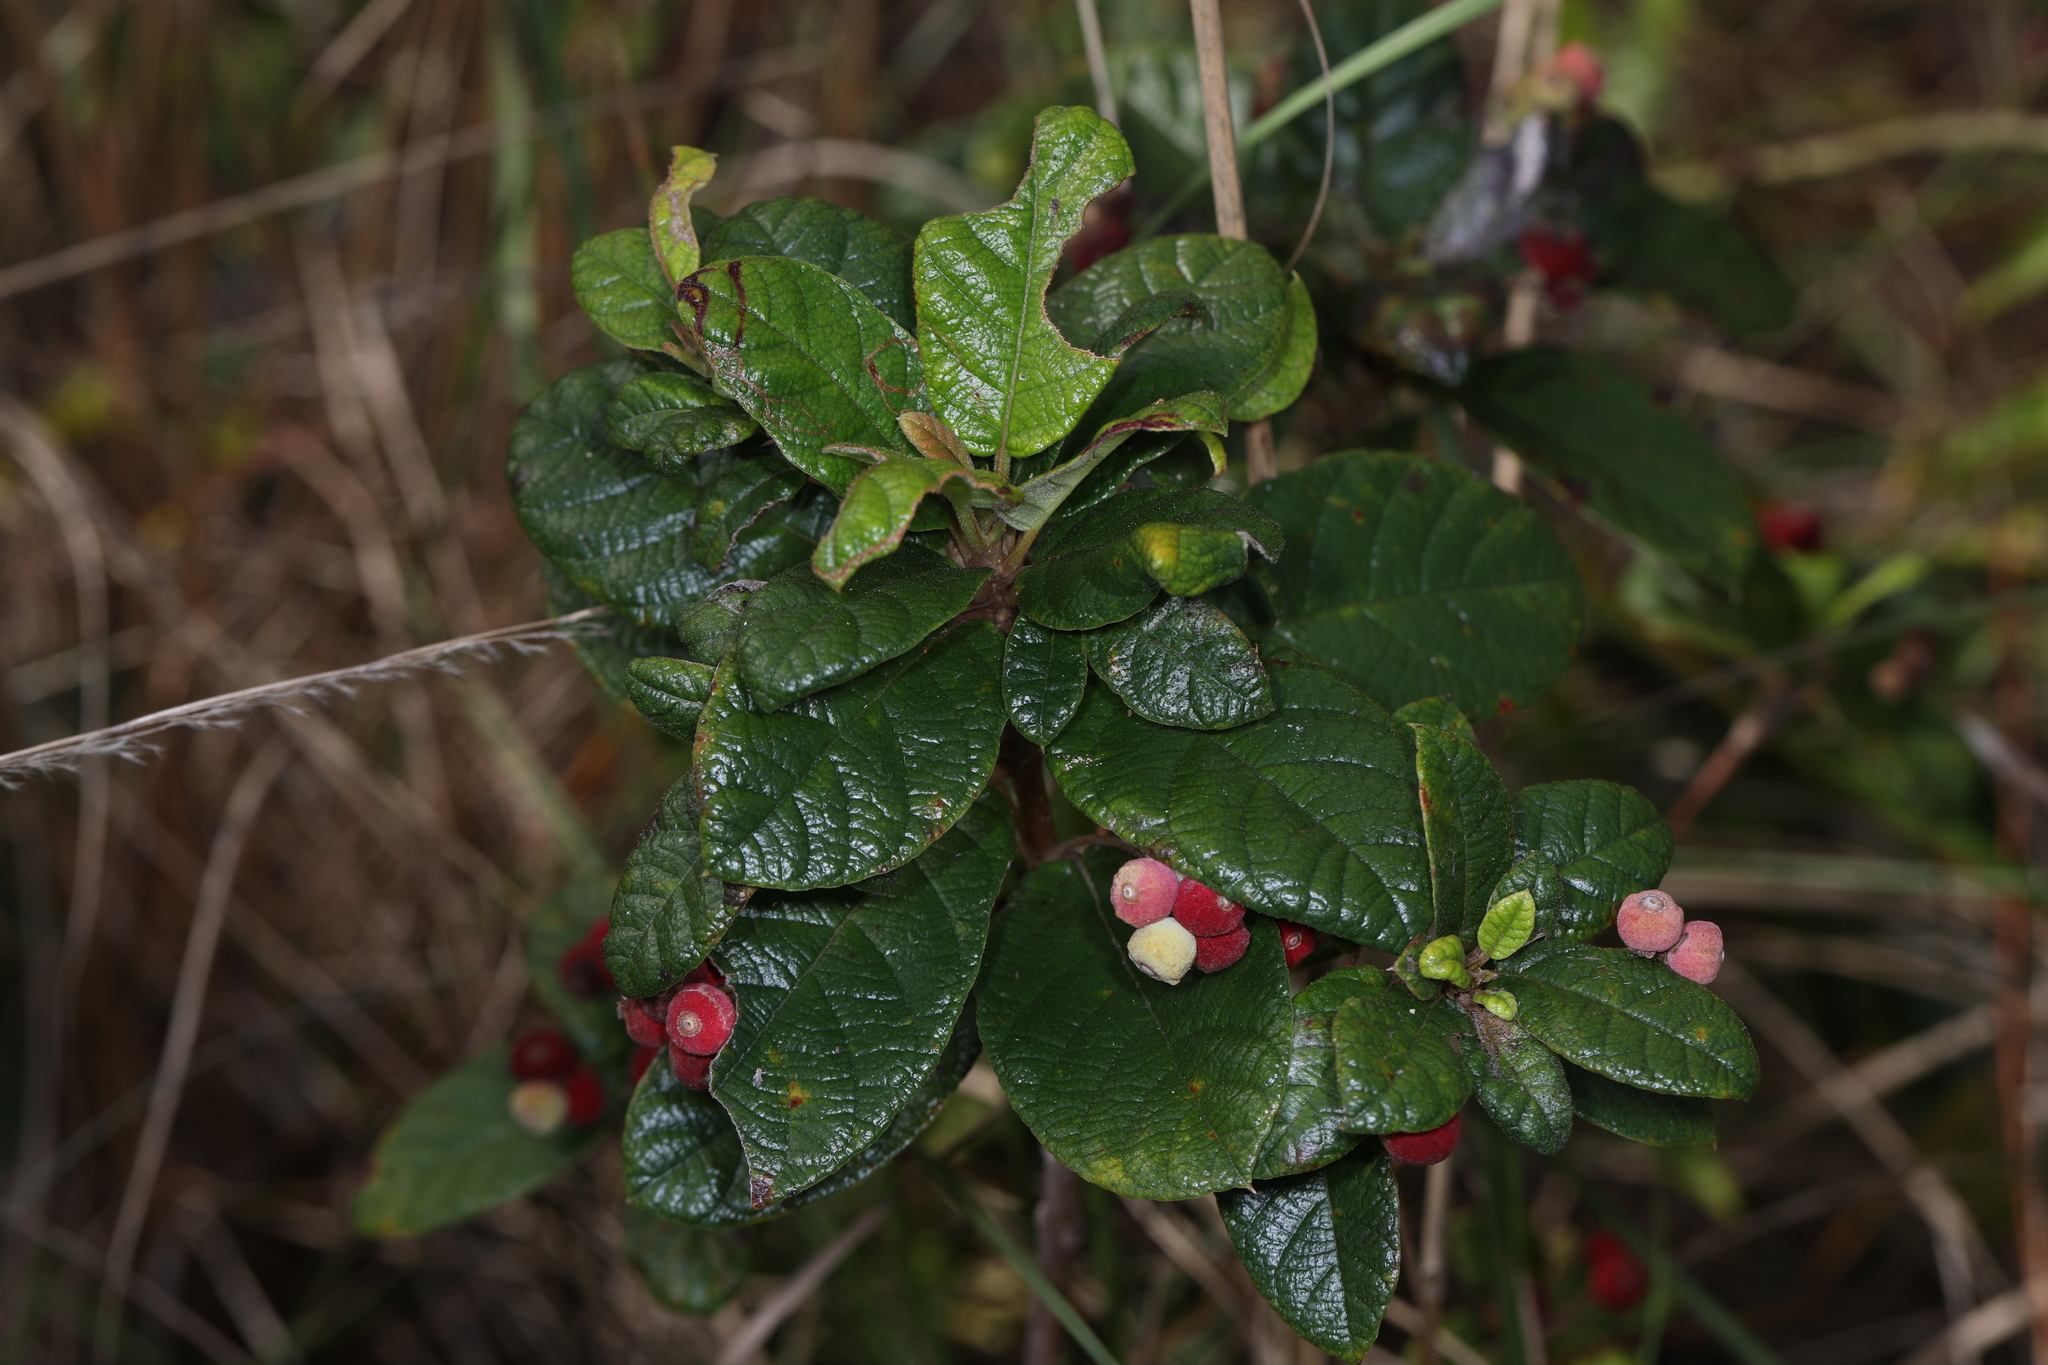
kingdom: Plantae
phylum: Tracheophyta
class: Magnoliopsida
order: Gentianales
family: Rubiaceae
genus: Guettarda
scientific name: Guettarda scabra
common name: Pigeon bay
